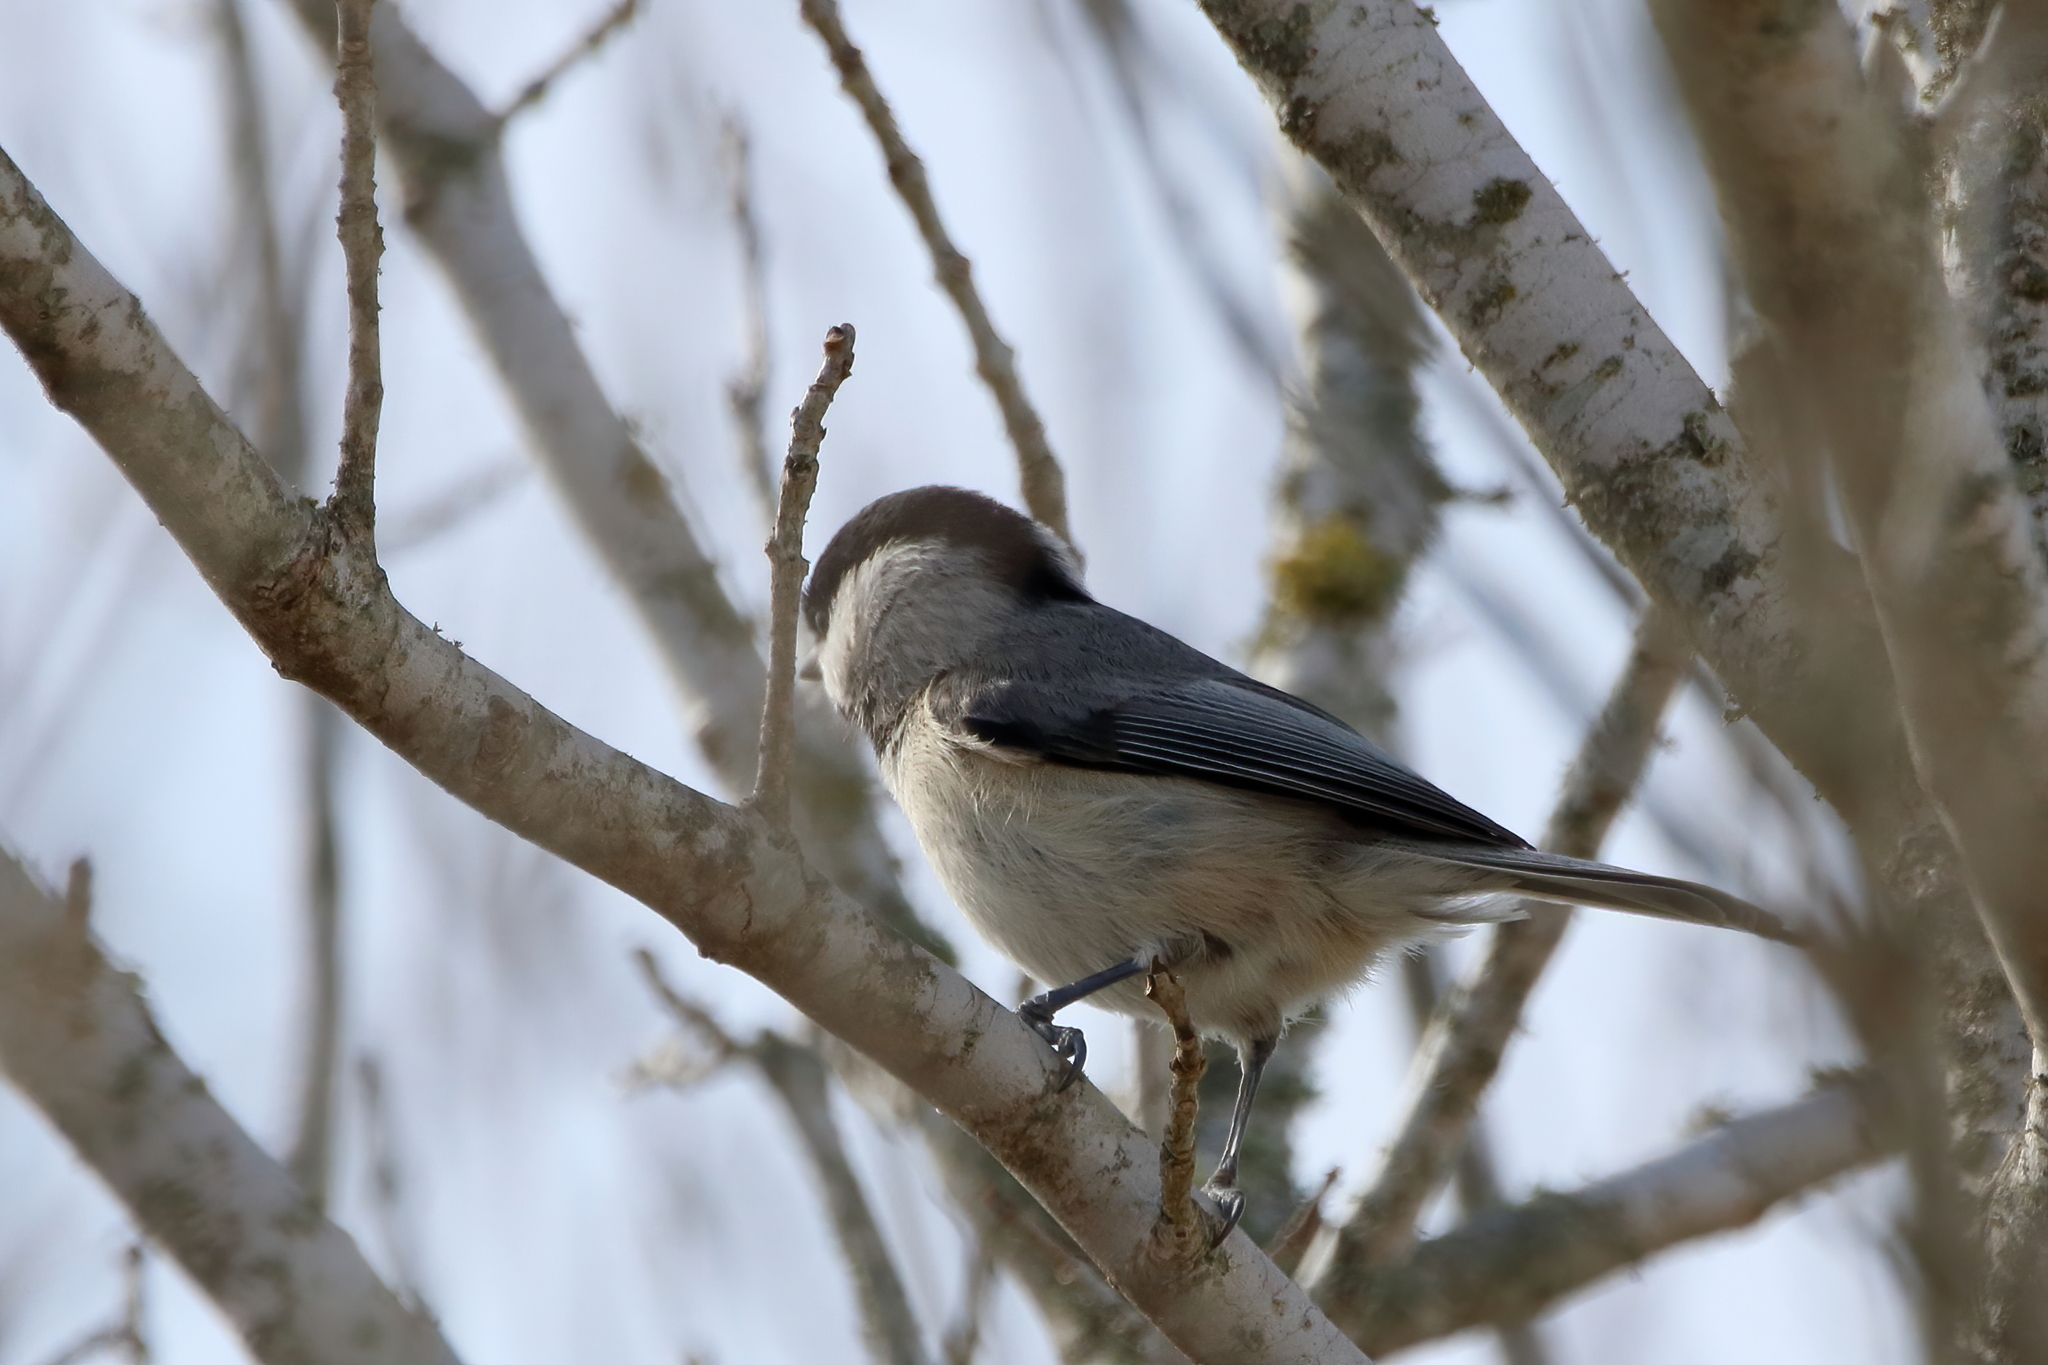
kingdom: Animalia
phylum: Chordata
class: Aves
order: Passeriformes
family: Paridae
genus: Poecile
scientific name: Poecile carolinensis
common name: Carolina chickadee
